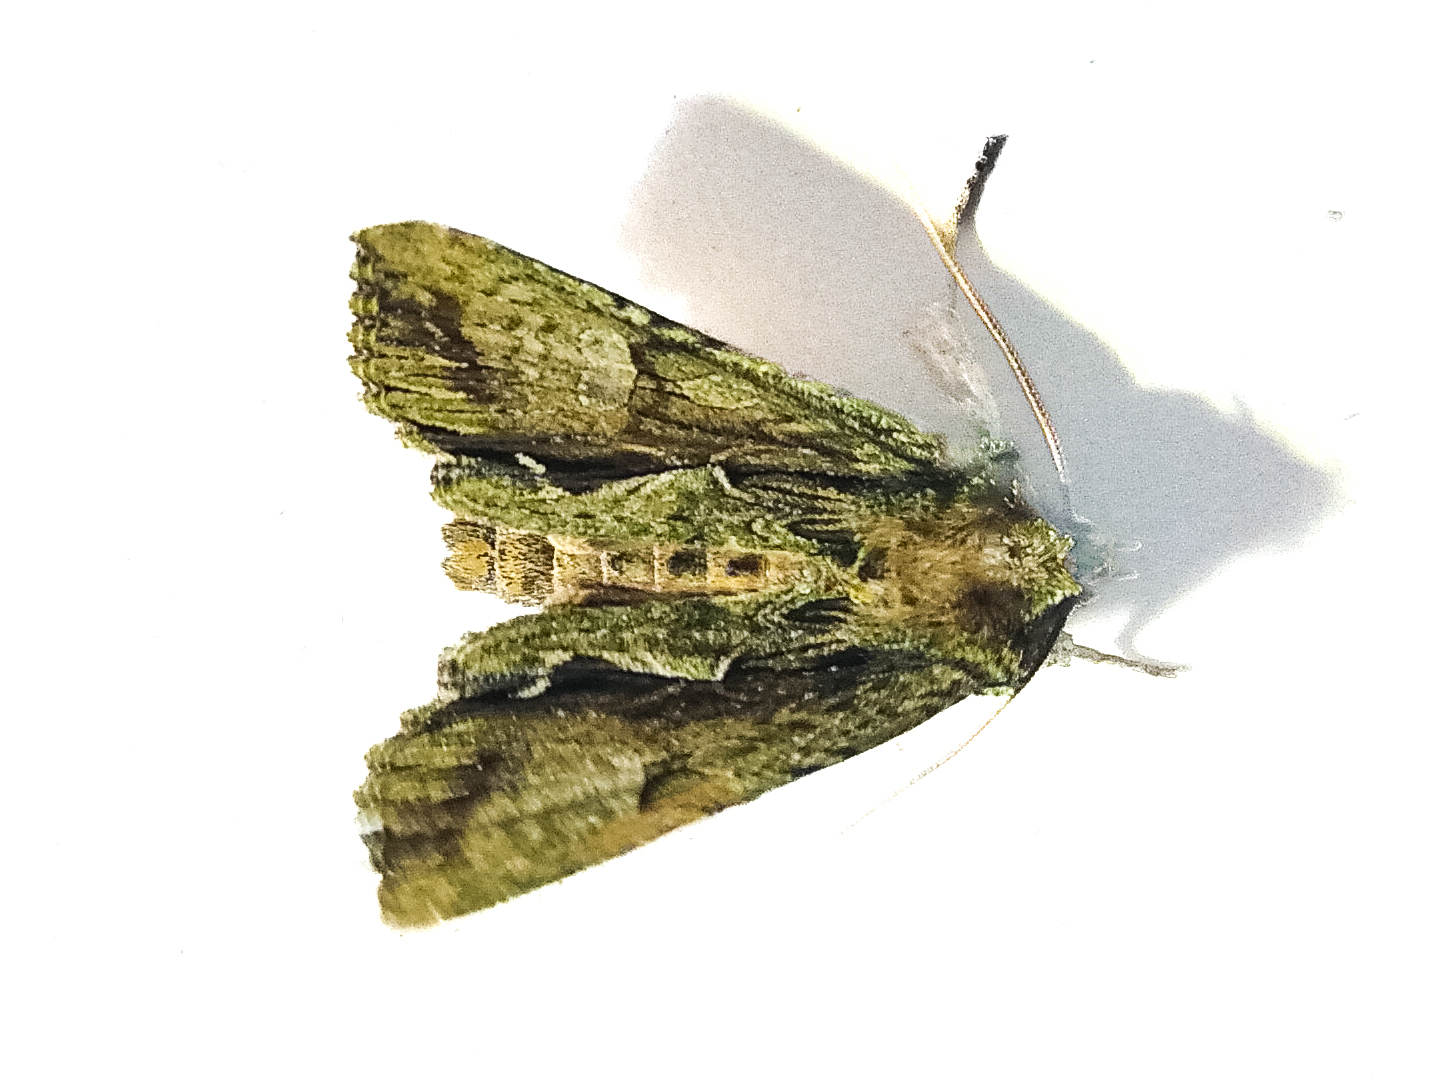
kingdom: Animalia
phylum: Arthropoda
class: Insecta
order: Lepidoptera
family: Noctuidae
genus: Meterana
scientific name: Meterana decorata
